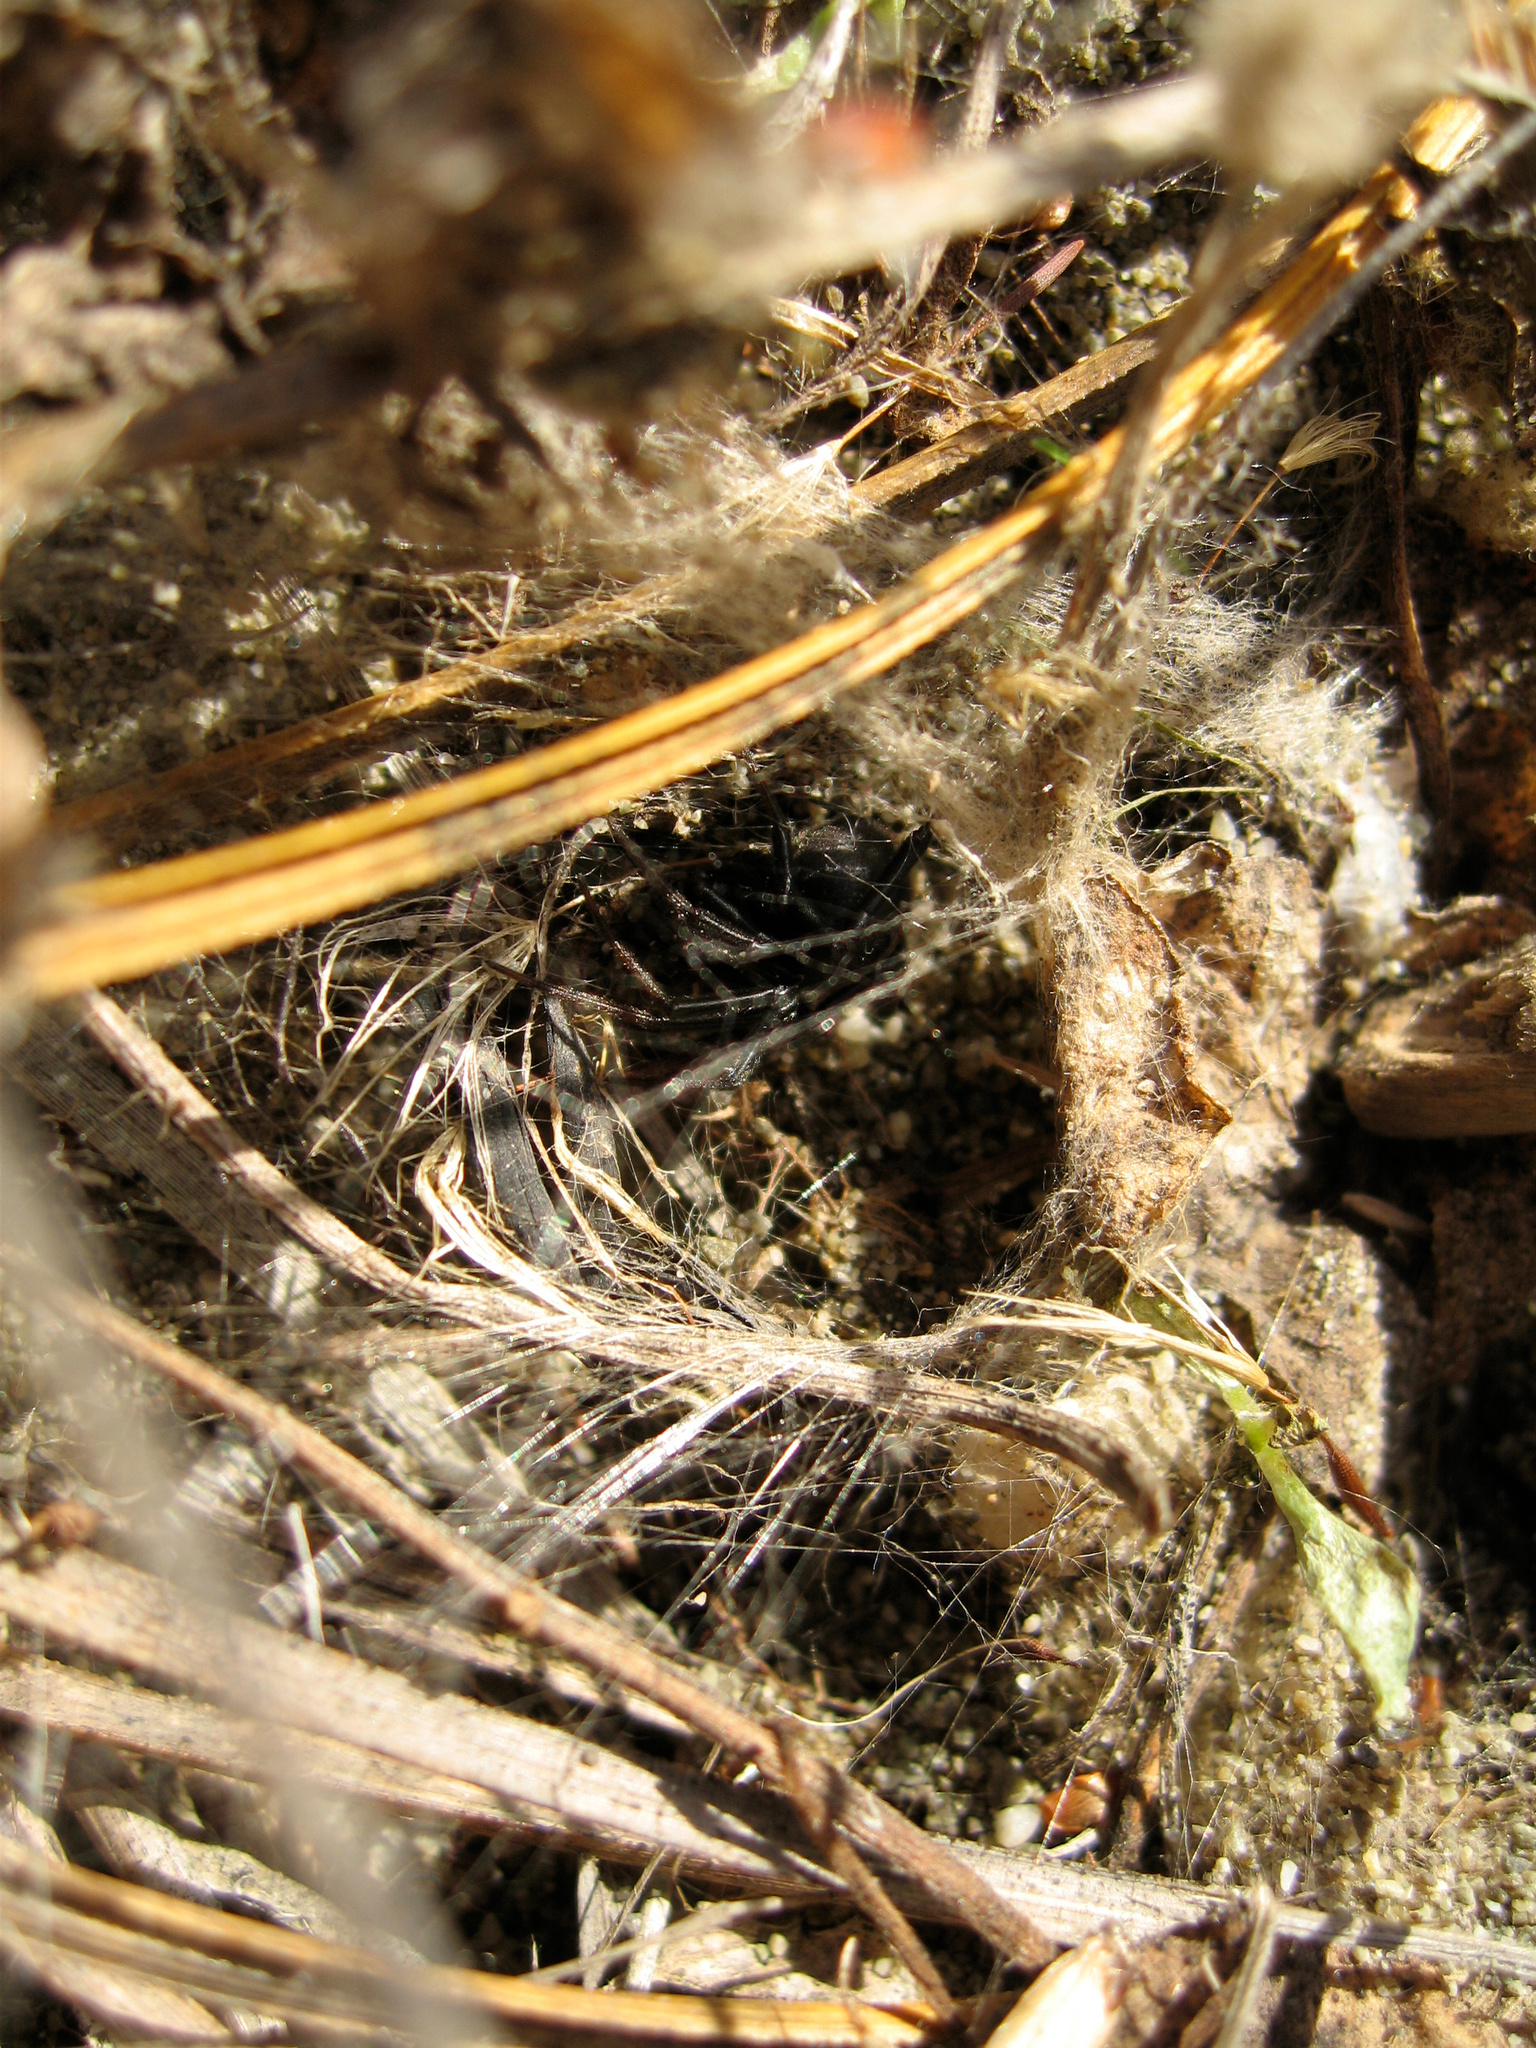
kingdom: Animalia
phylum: Arthropoda
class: Arachnida
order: Araneae
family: Theridiidae
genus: Latrodectus
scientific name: Latrodectus katipo
